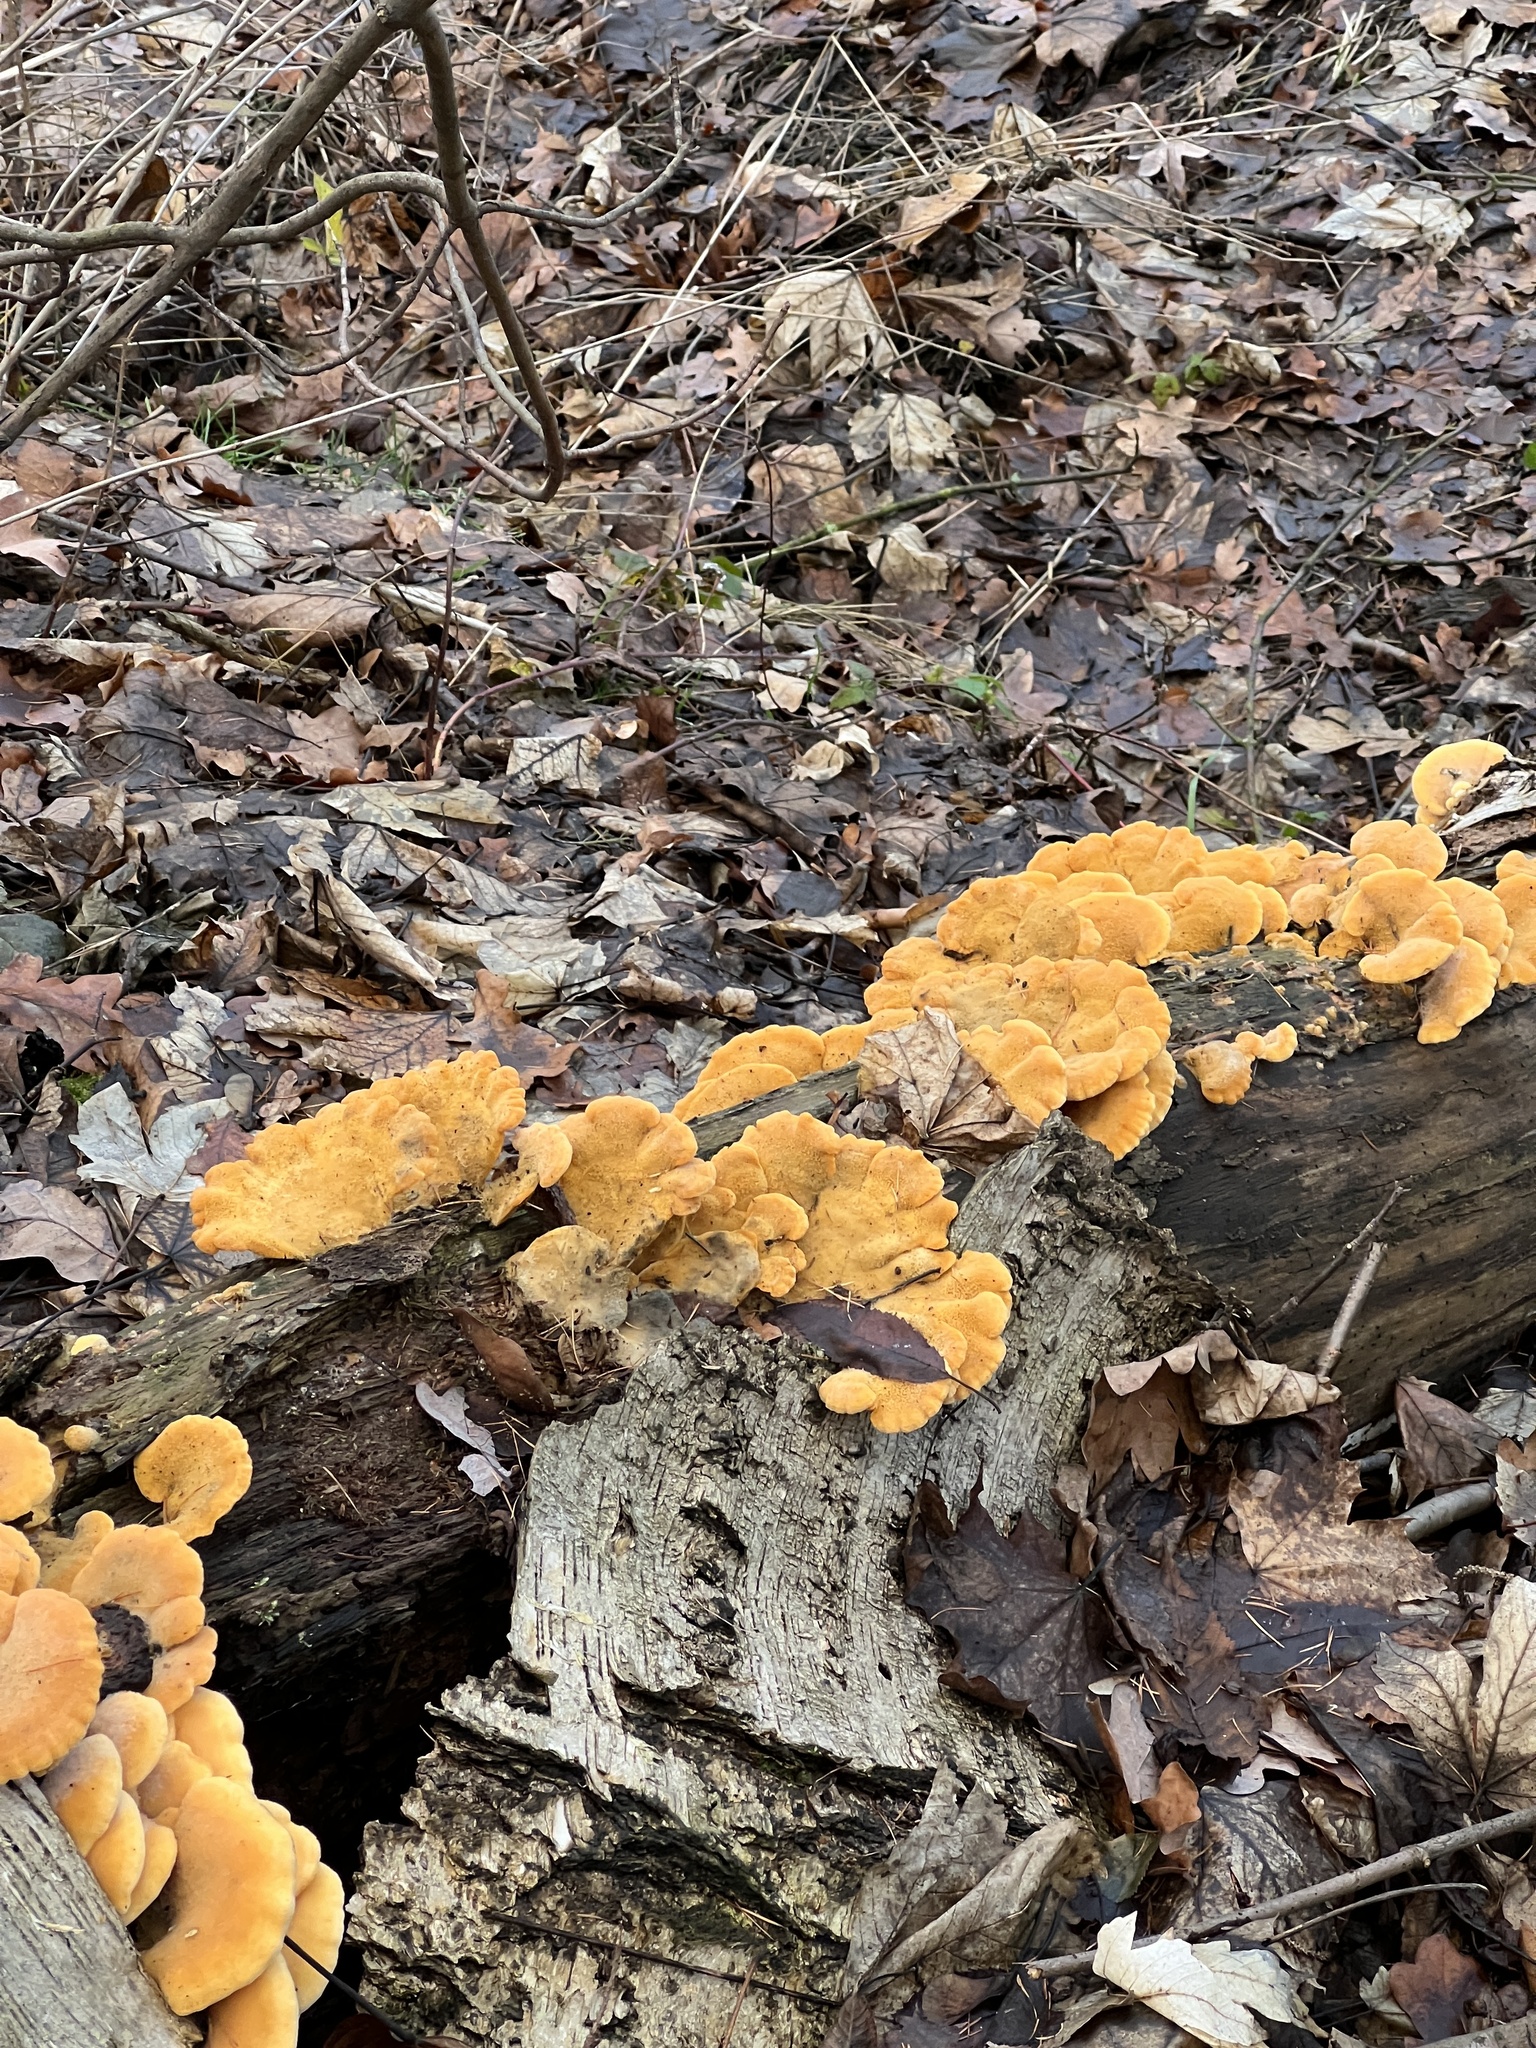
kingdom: Fungi
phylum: Basidiomycota
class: Agaricomycetes
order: Agaricales
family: Phyllotopsidaceae
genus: Phyllotopsis
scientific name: Phyllotopsis nidulans
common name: Orange mock oyster
